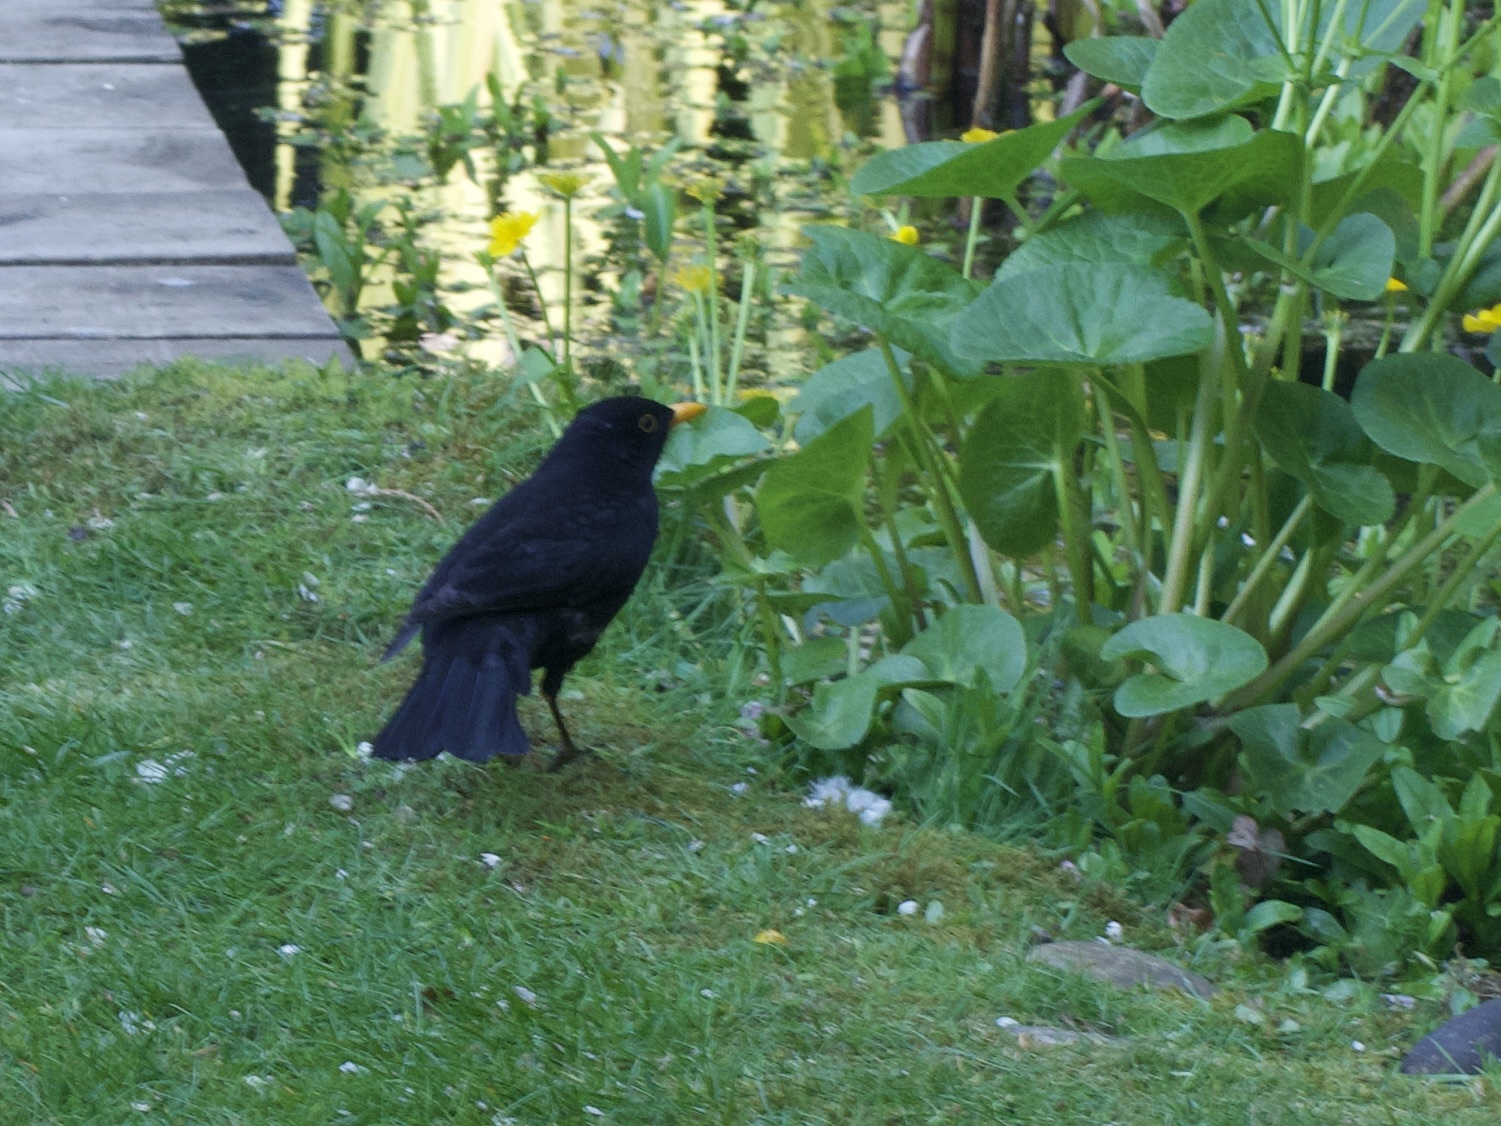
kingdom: Animalia
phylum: Chordata
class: Aves
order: Passeriformes
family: Turdidae
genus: Turdus
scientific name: Turdus merula
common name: Common blackbird
